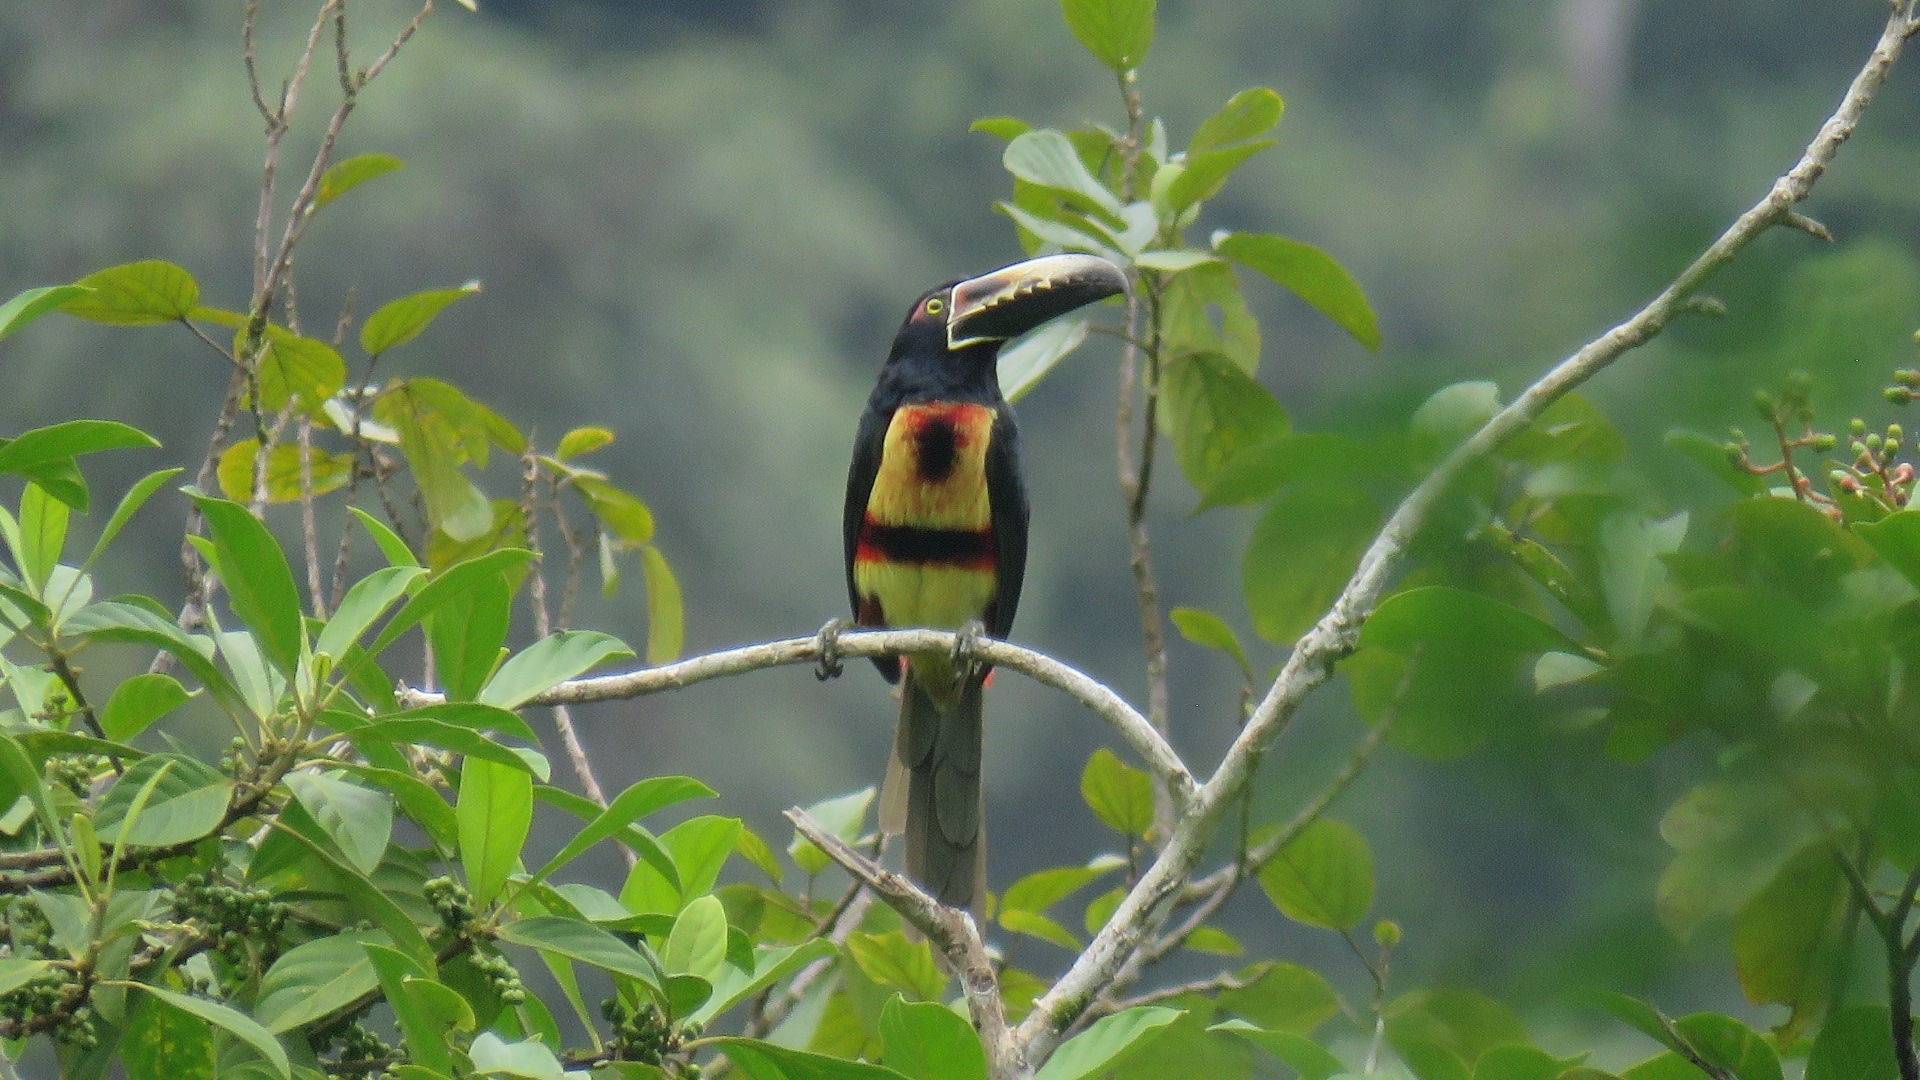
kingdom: Animalia
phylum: Chordata
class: Aves
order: Piciformes
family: Ramphastidae
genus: Pteroglossus
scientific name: Pteroglossus torquatus
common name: Collared aracari
